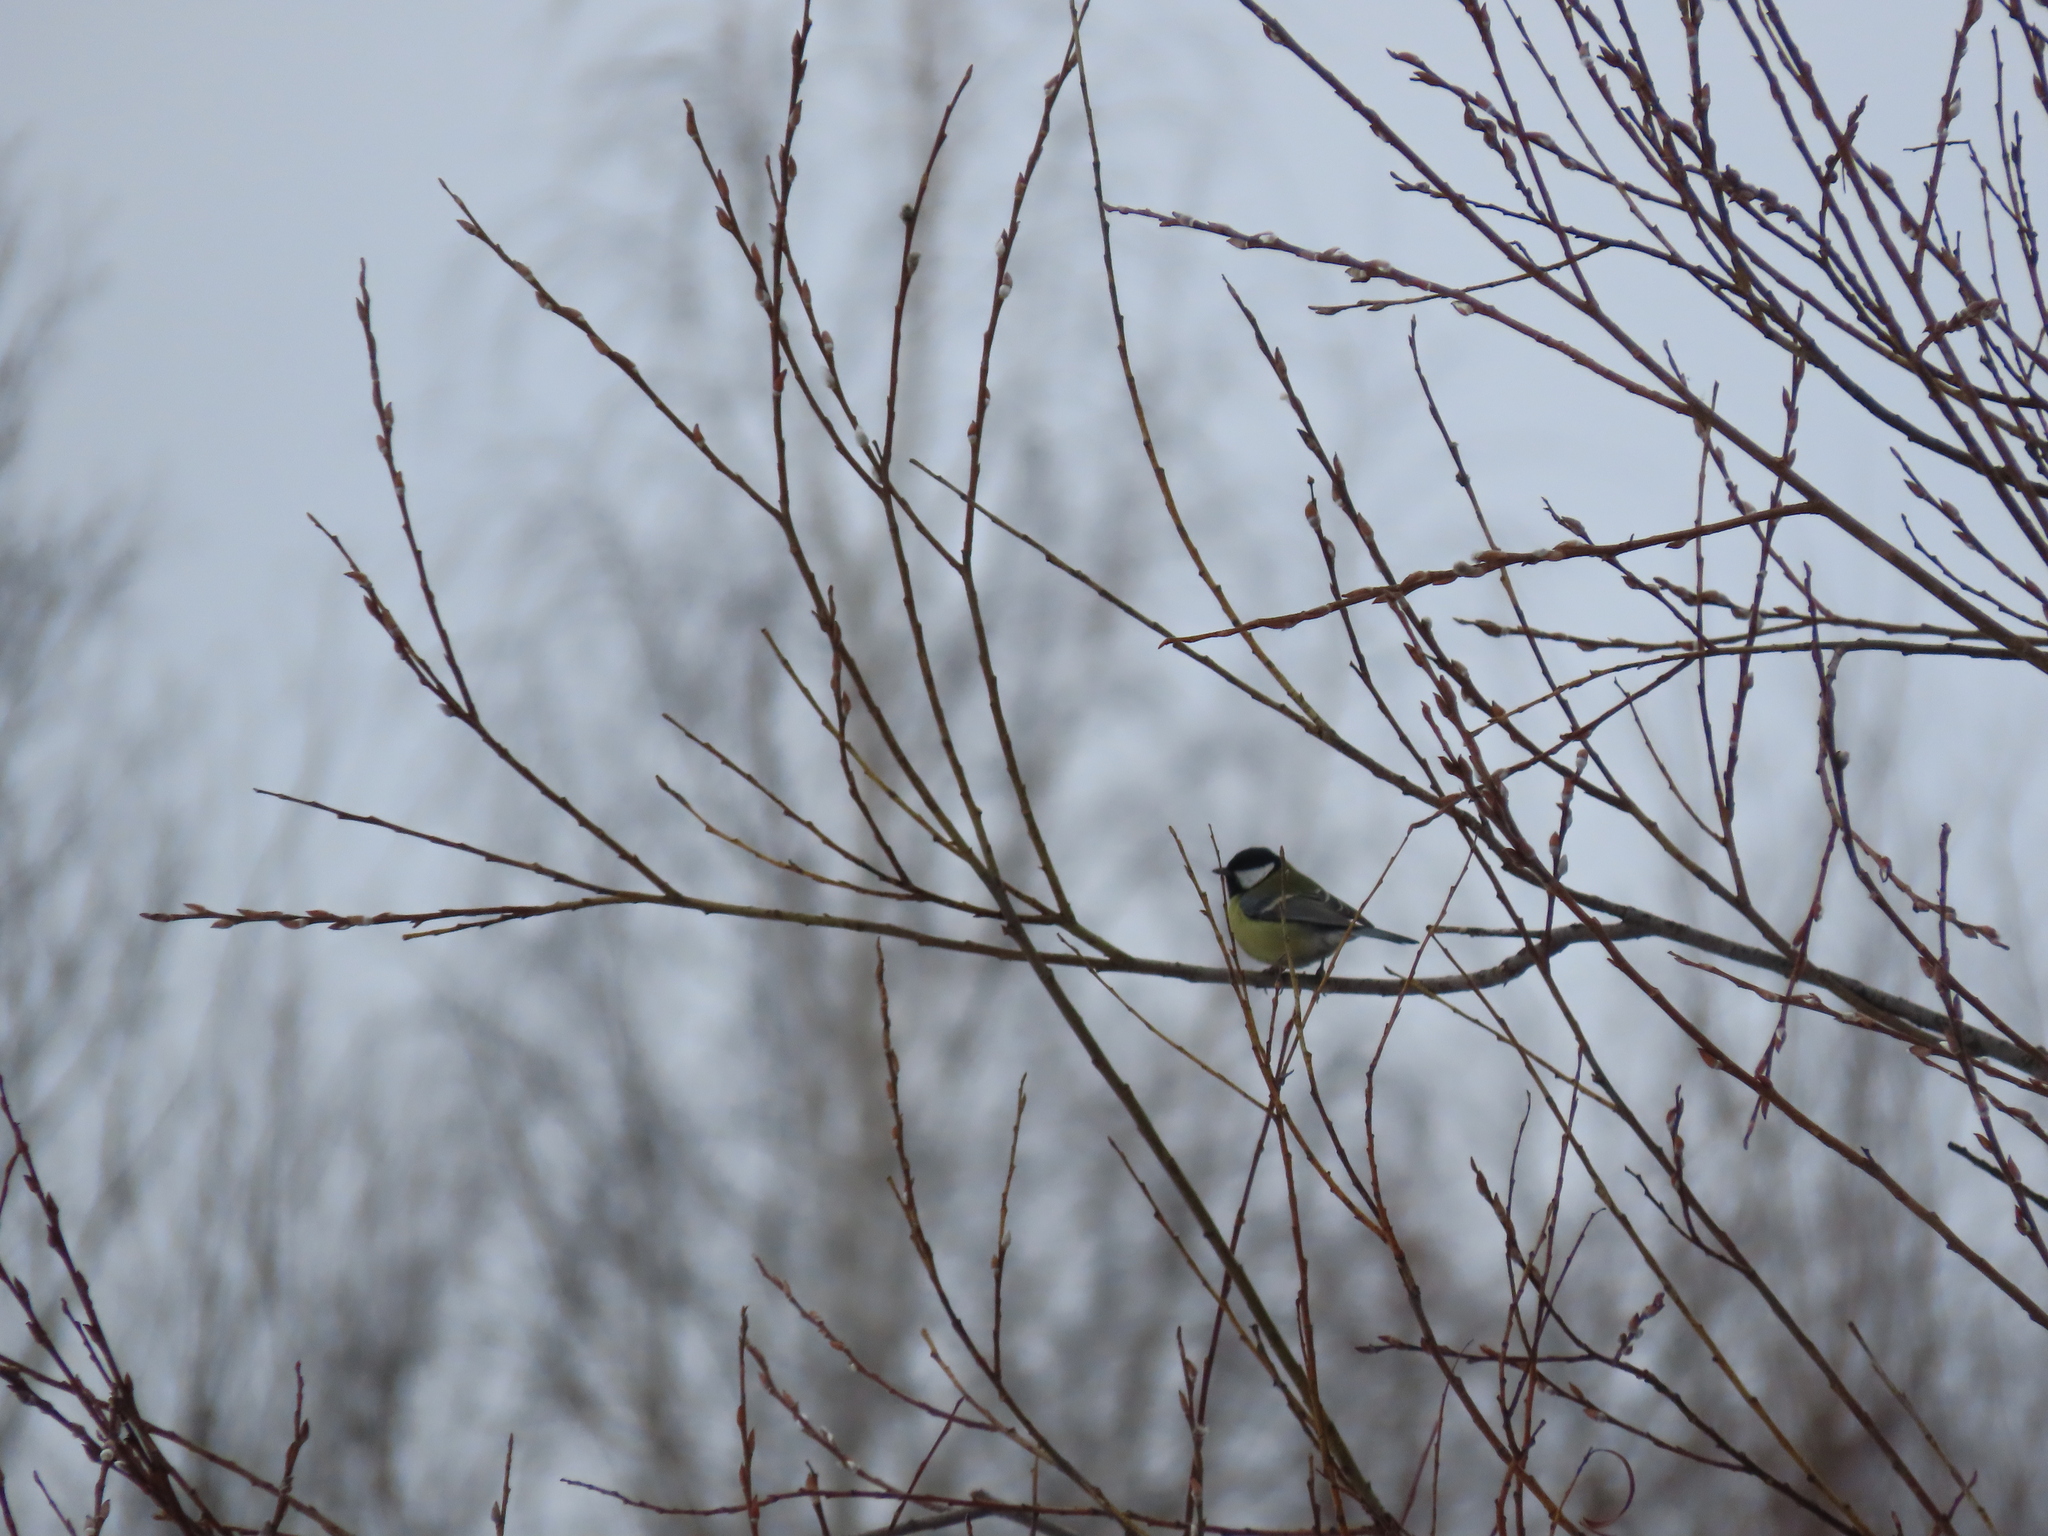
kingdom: Animalia
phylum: Chordata
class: Aves
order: Passeriformes
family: Paridae
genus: Parus
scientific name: Parus major
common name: Great tit
